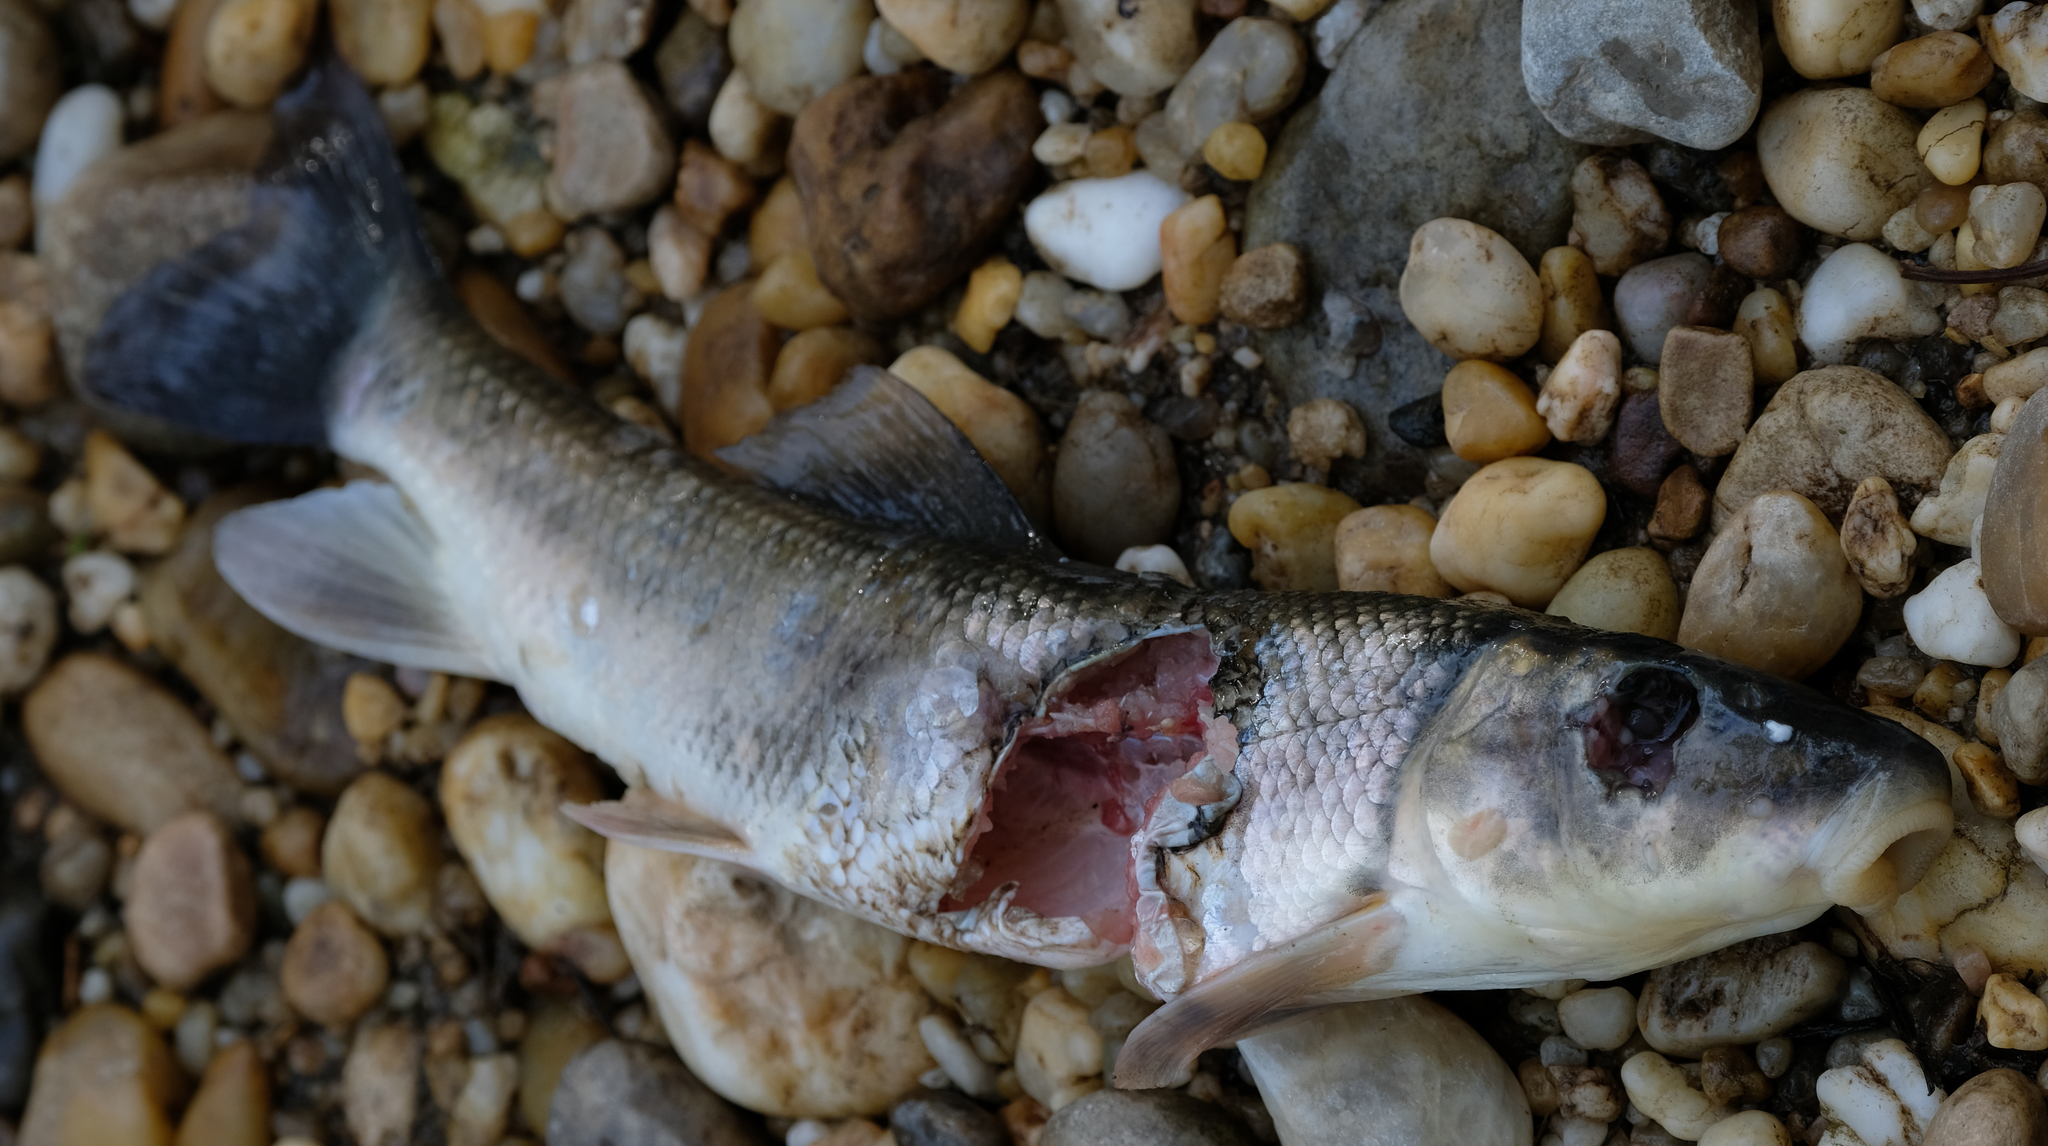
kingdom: Animalia
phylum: Chordata
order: Cypriniformes
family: Catostomidae
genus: Catostomus
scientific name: Catostomus commersonii
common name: White sucker
